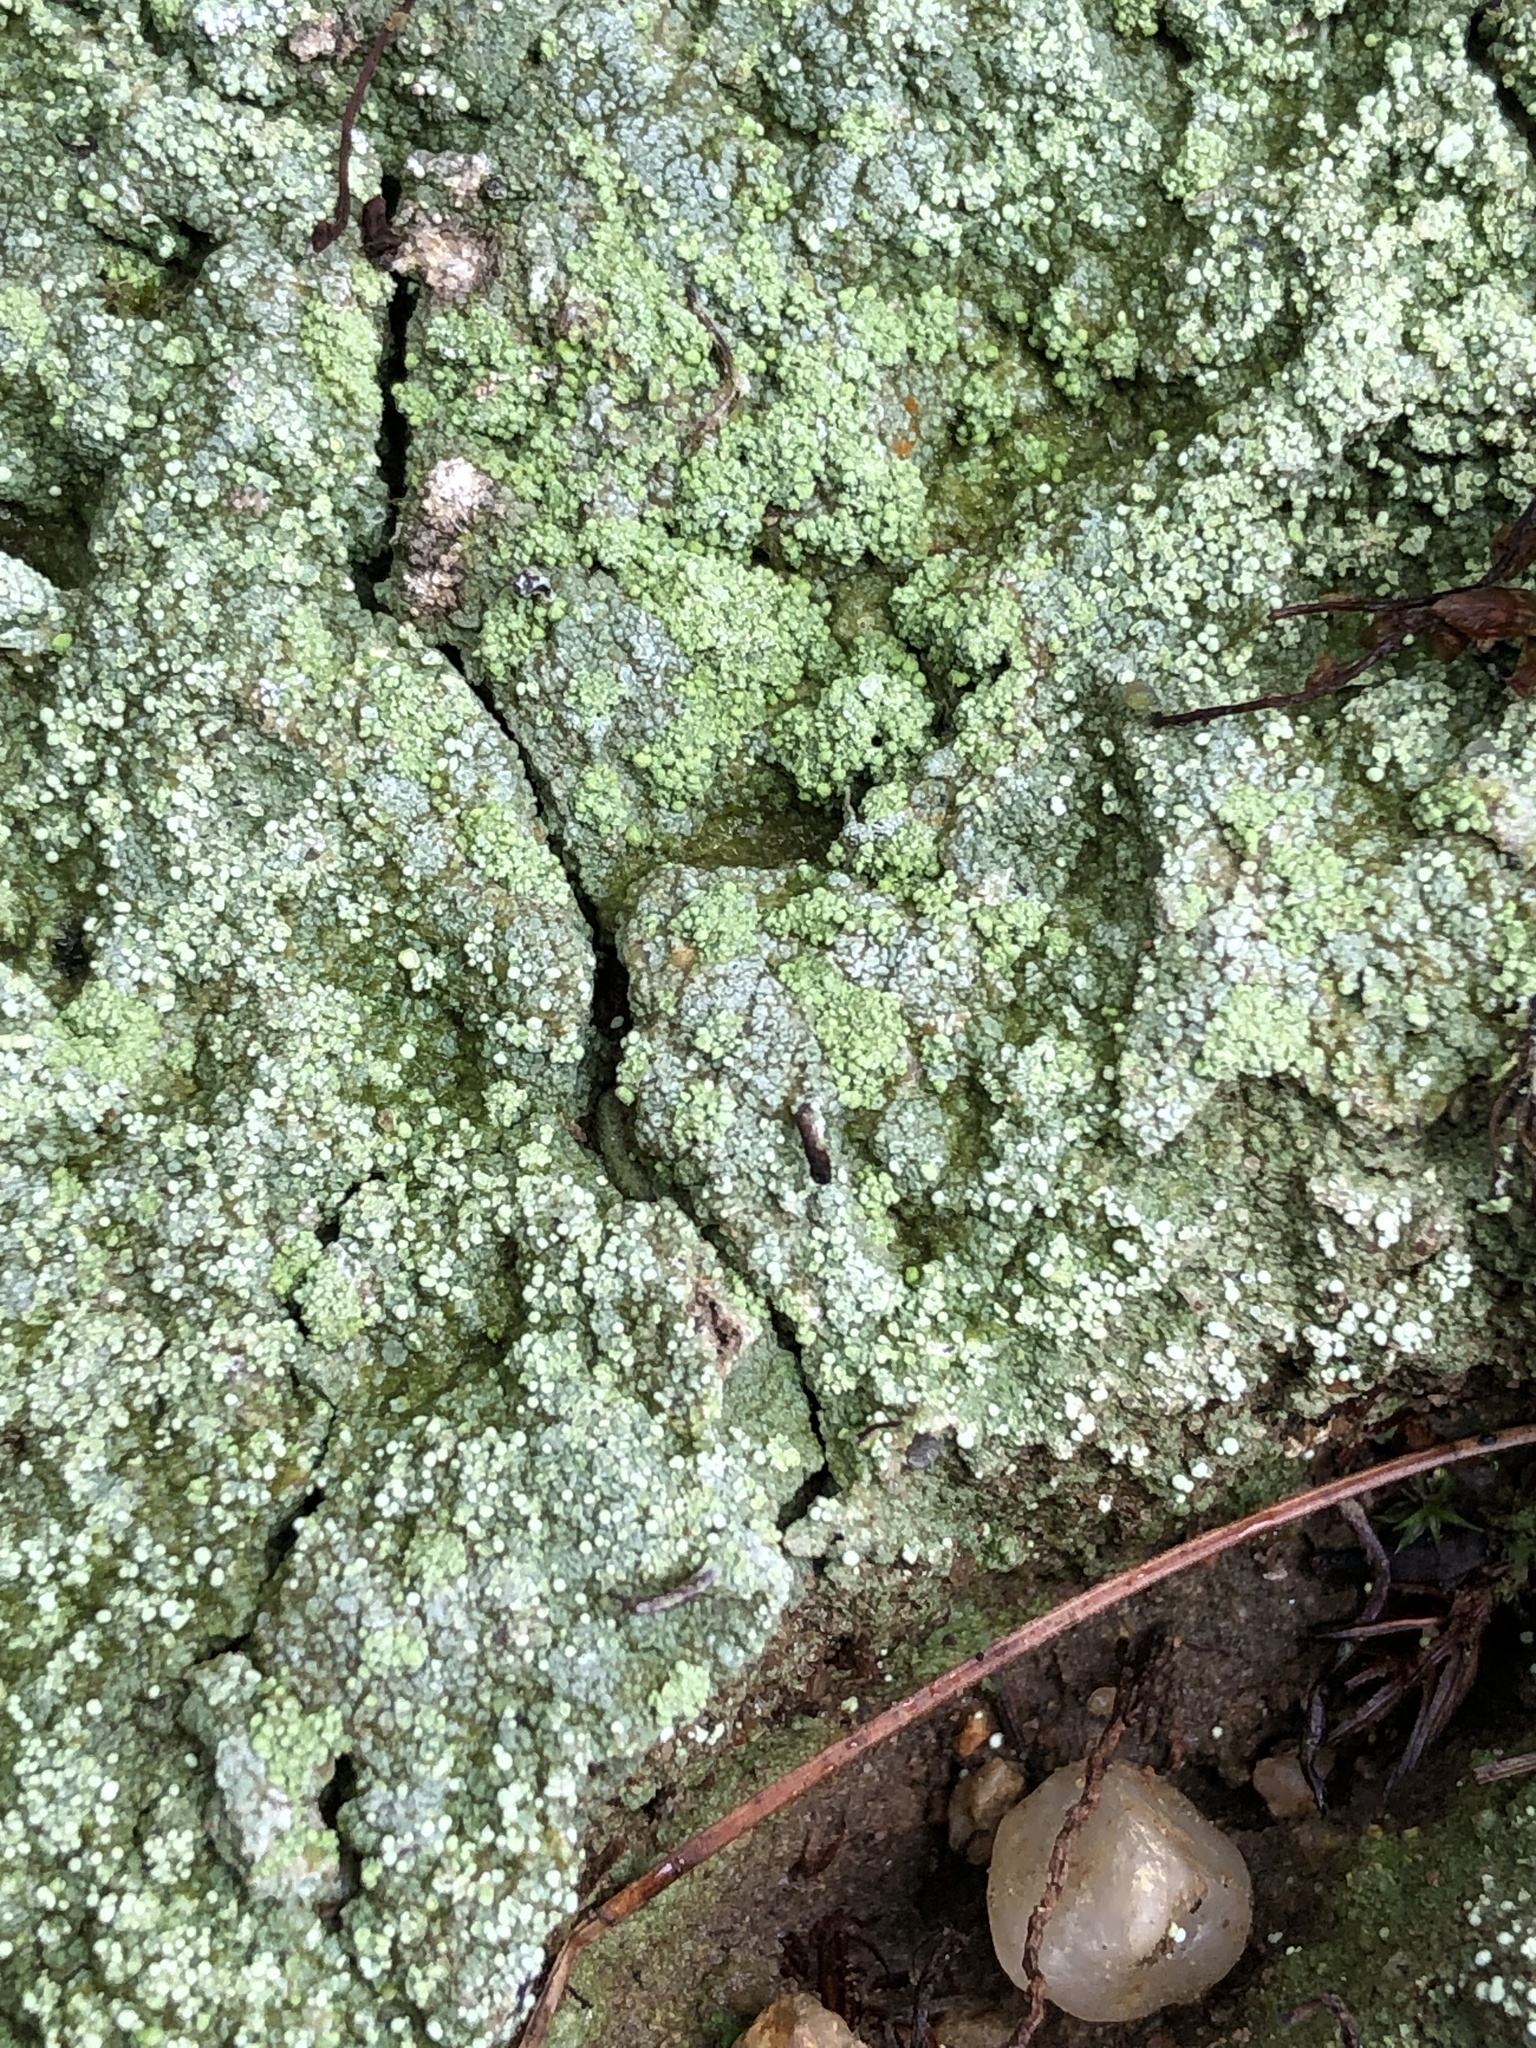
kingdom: Fungi
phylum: Ascomycota
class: Lecanoromycetes
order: Pertusariales
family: Icmadophilaceae
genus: Dibaeis
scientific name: Dibaeis baeomyces
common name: Pink earth lichen
